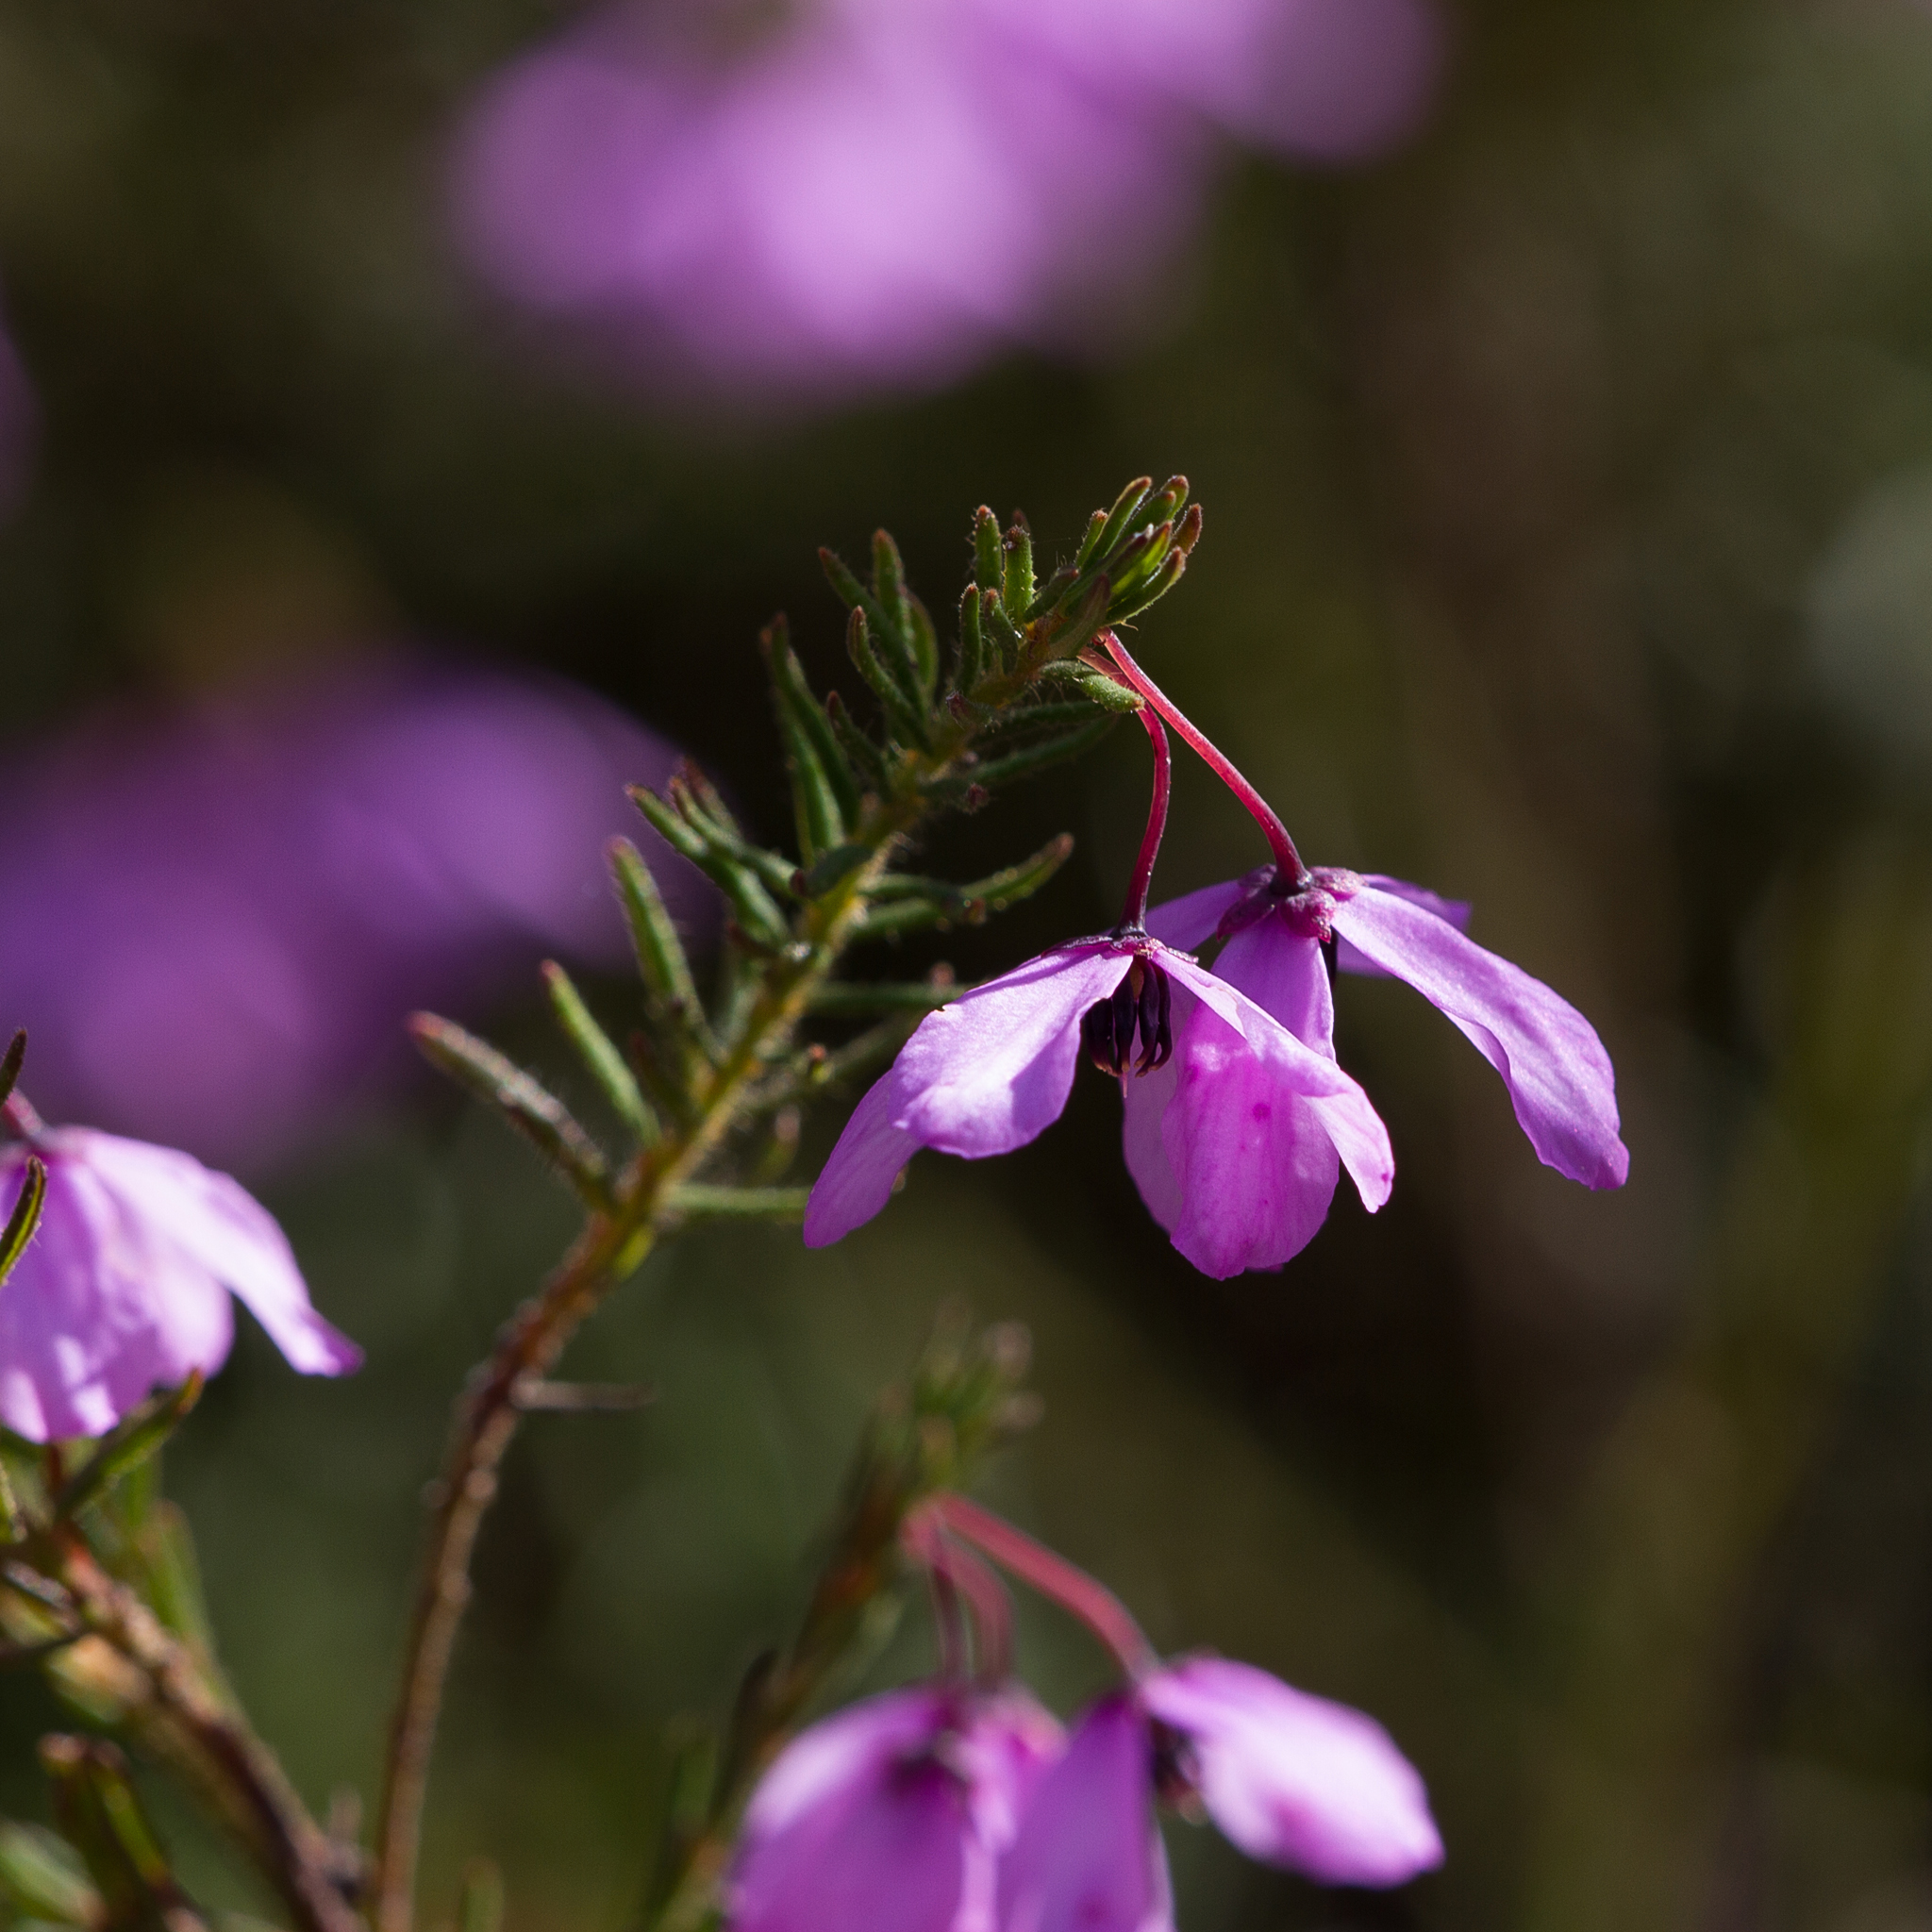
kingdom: Plantae
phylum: Tracheophyta
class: Magnoliopsida
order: Oxalidales
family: Elaeocarpaceae
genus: Tetratheca
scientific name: Tetratheca pilosa
